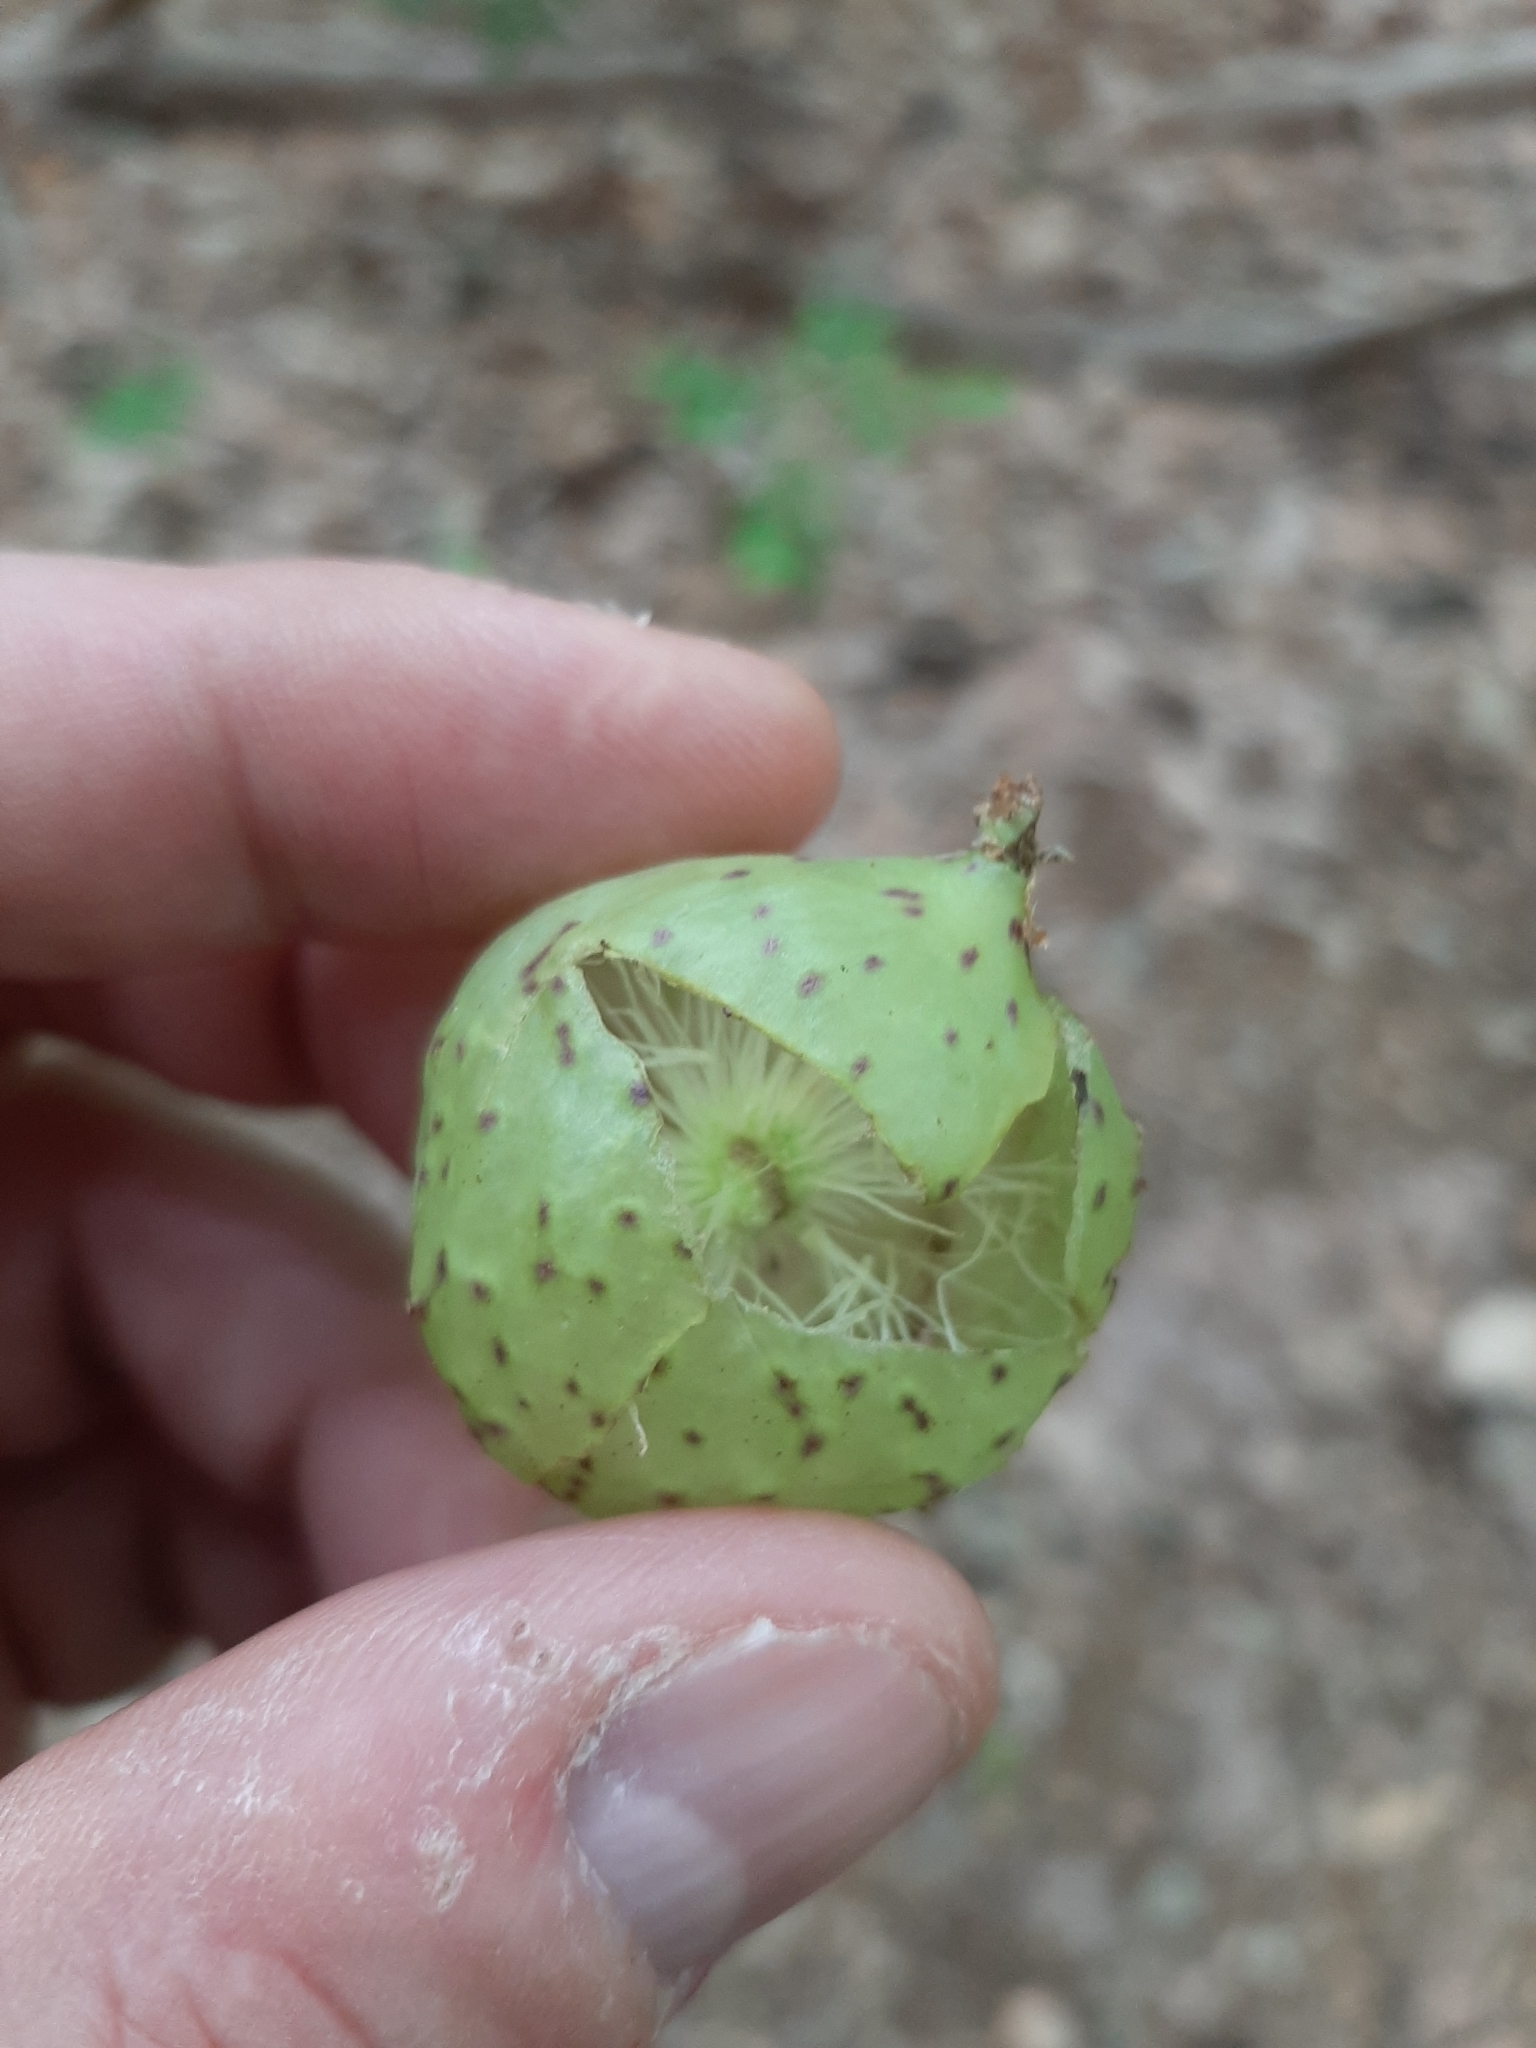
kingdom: Animalia
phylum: Arthropoda
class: Insecta
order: Hymenoptera
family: Cynipidae
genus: Amphibolips
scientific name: Amphibolips
